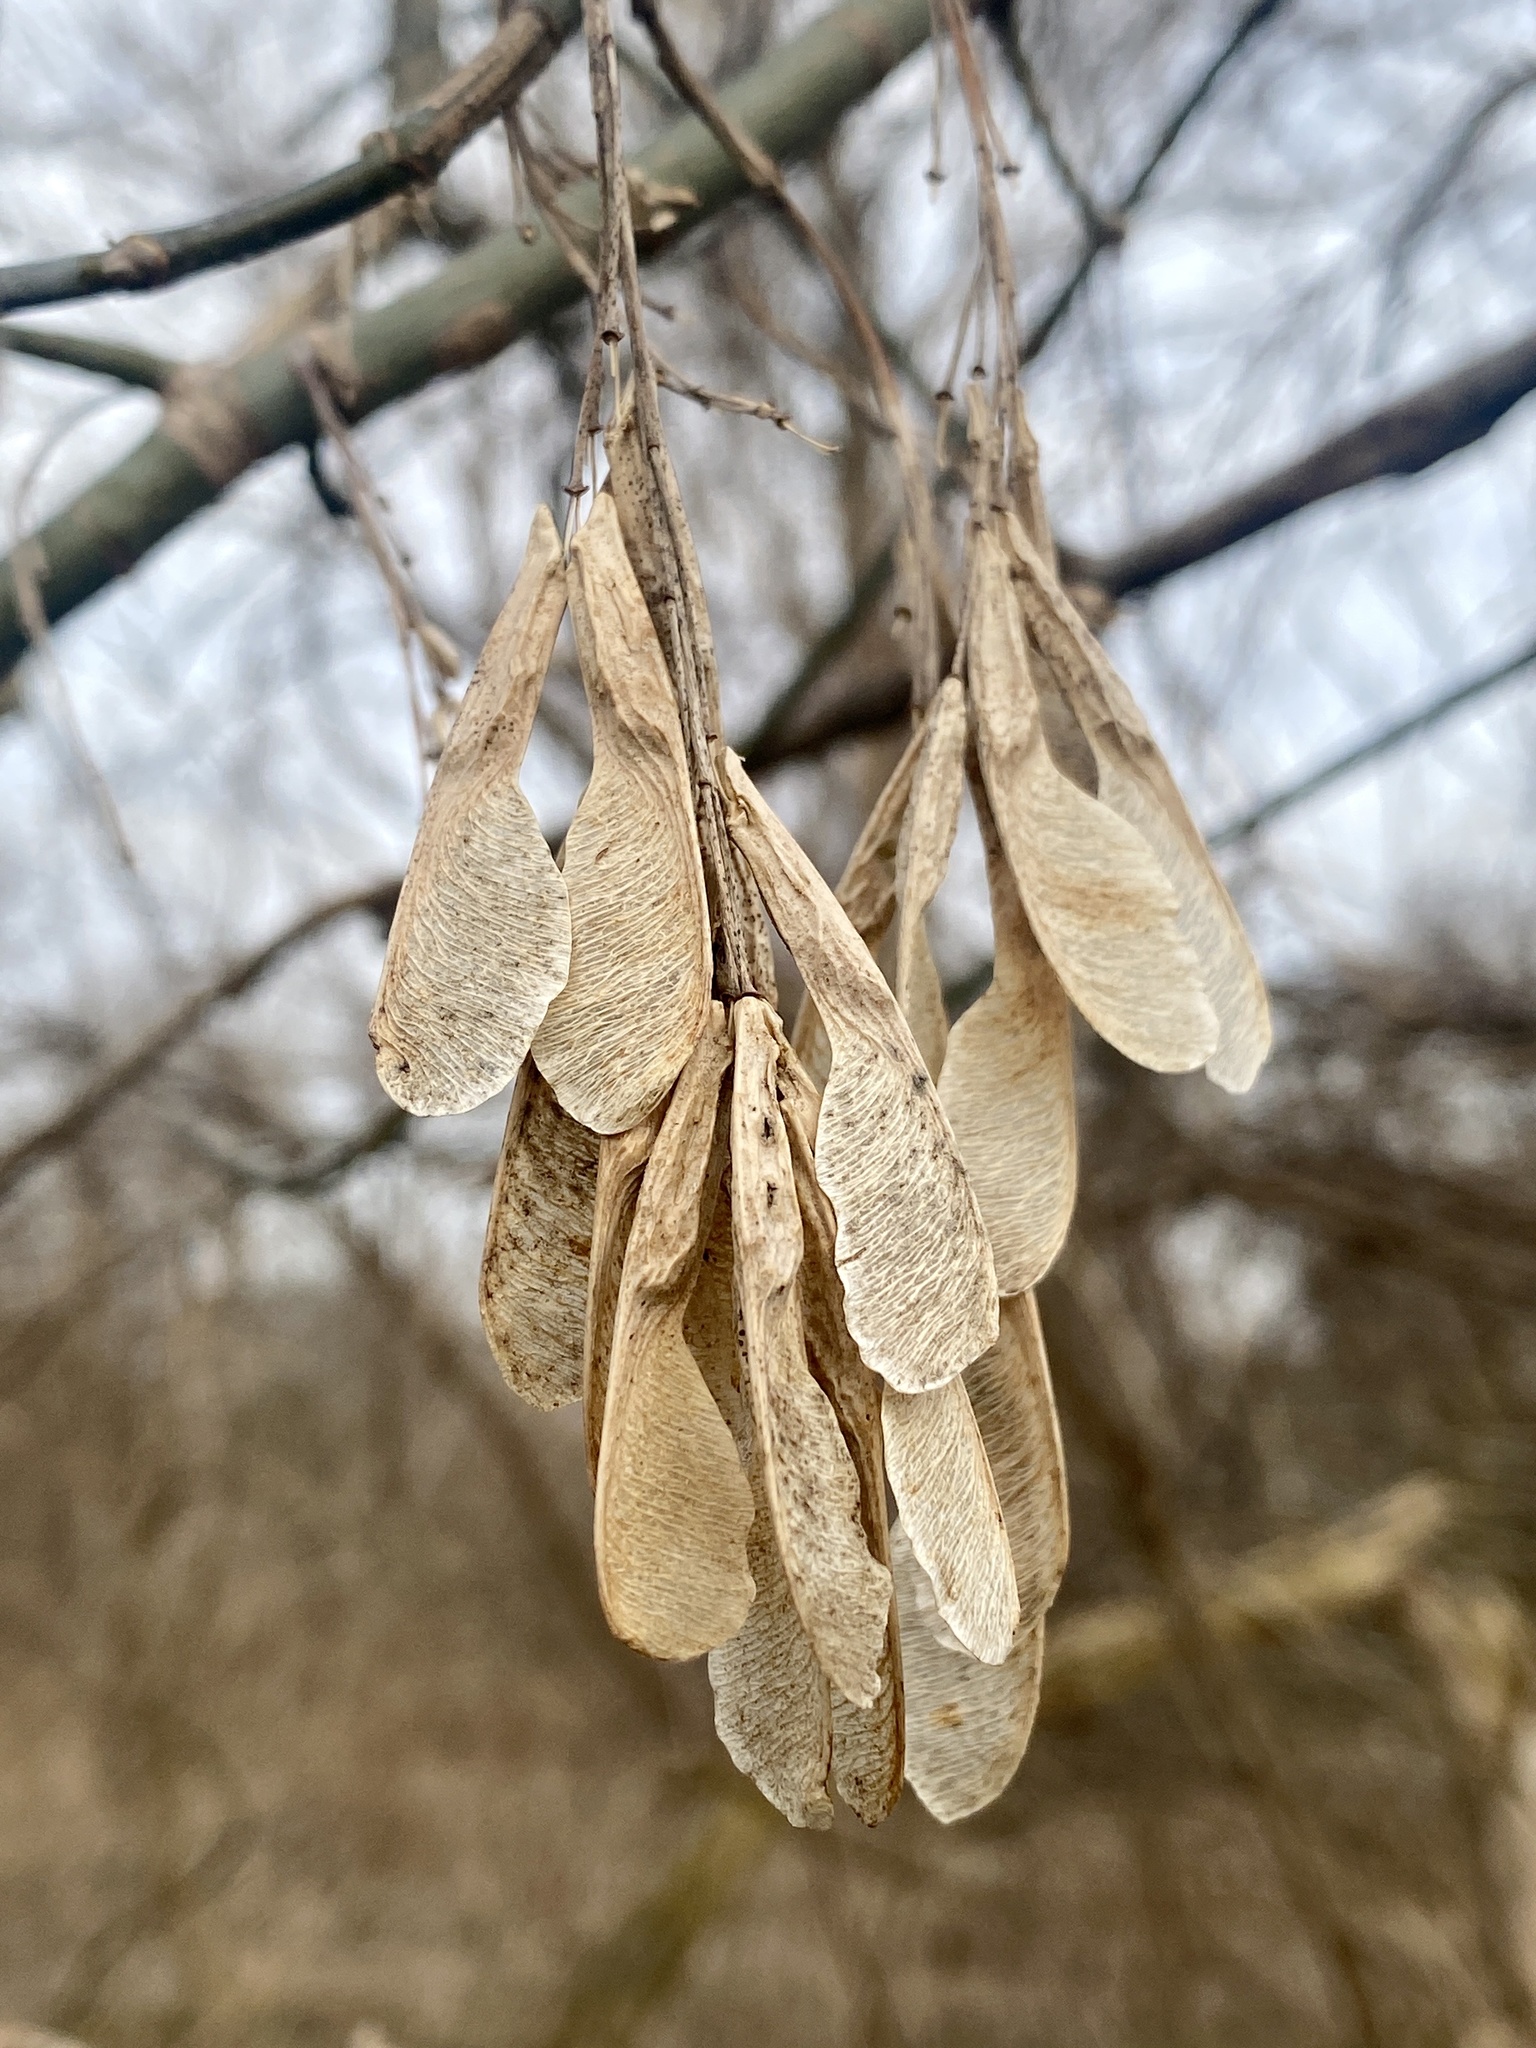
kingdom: Plantae
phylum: Tracheophyta
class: Magnoliopsida
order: Sapindales
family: Sapindaceae
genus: Acer
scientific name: Acer negundo
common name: Ashleaf maple
